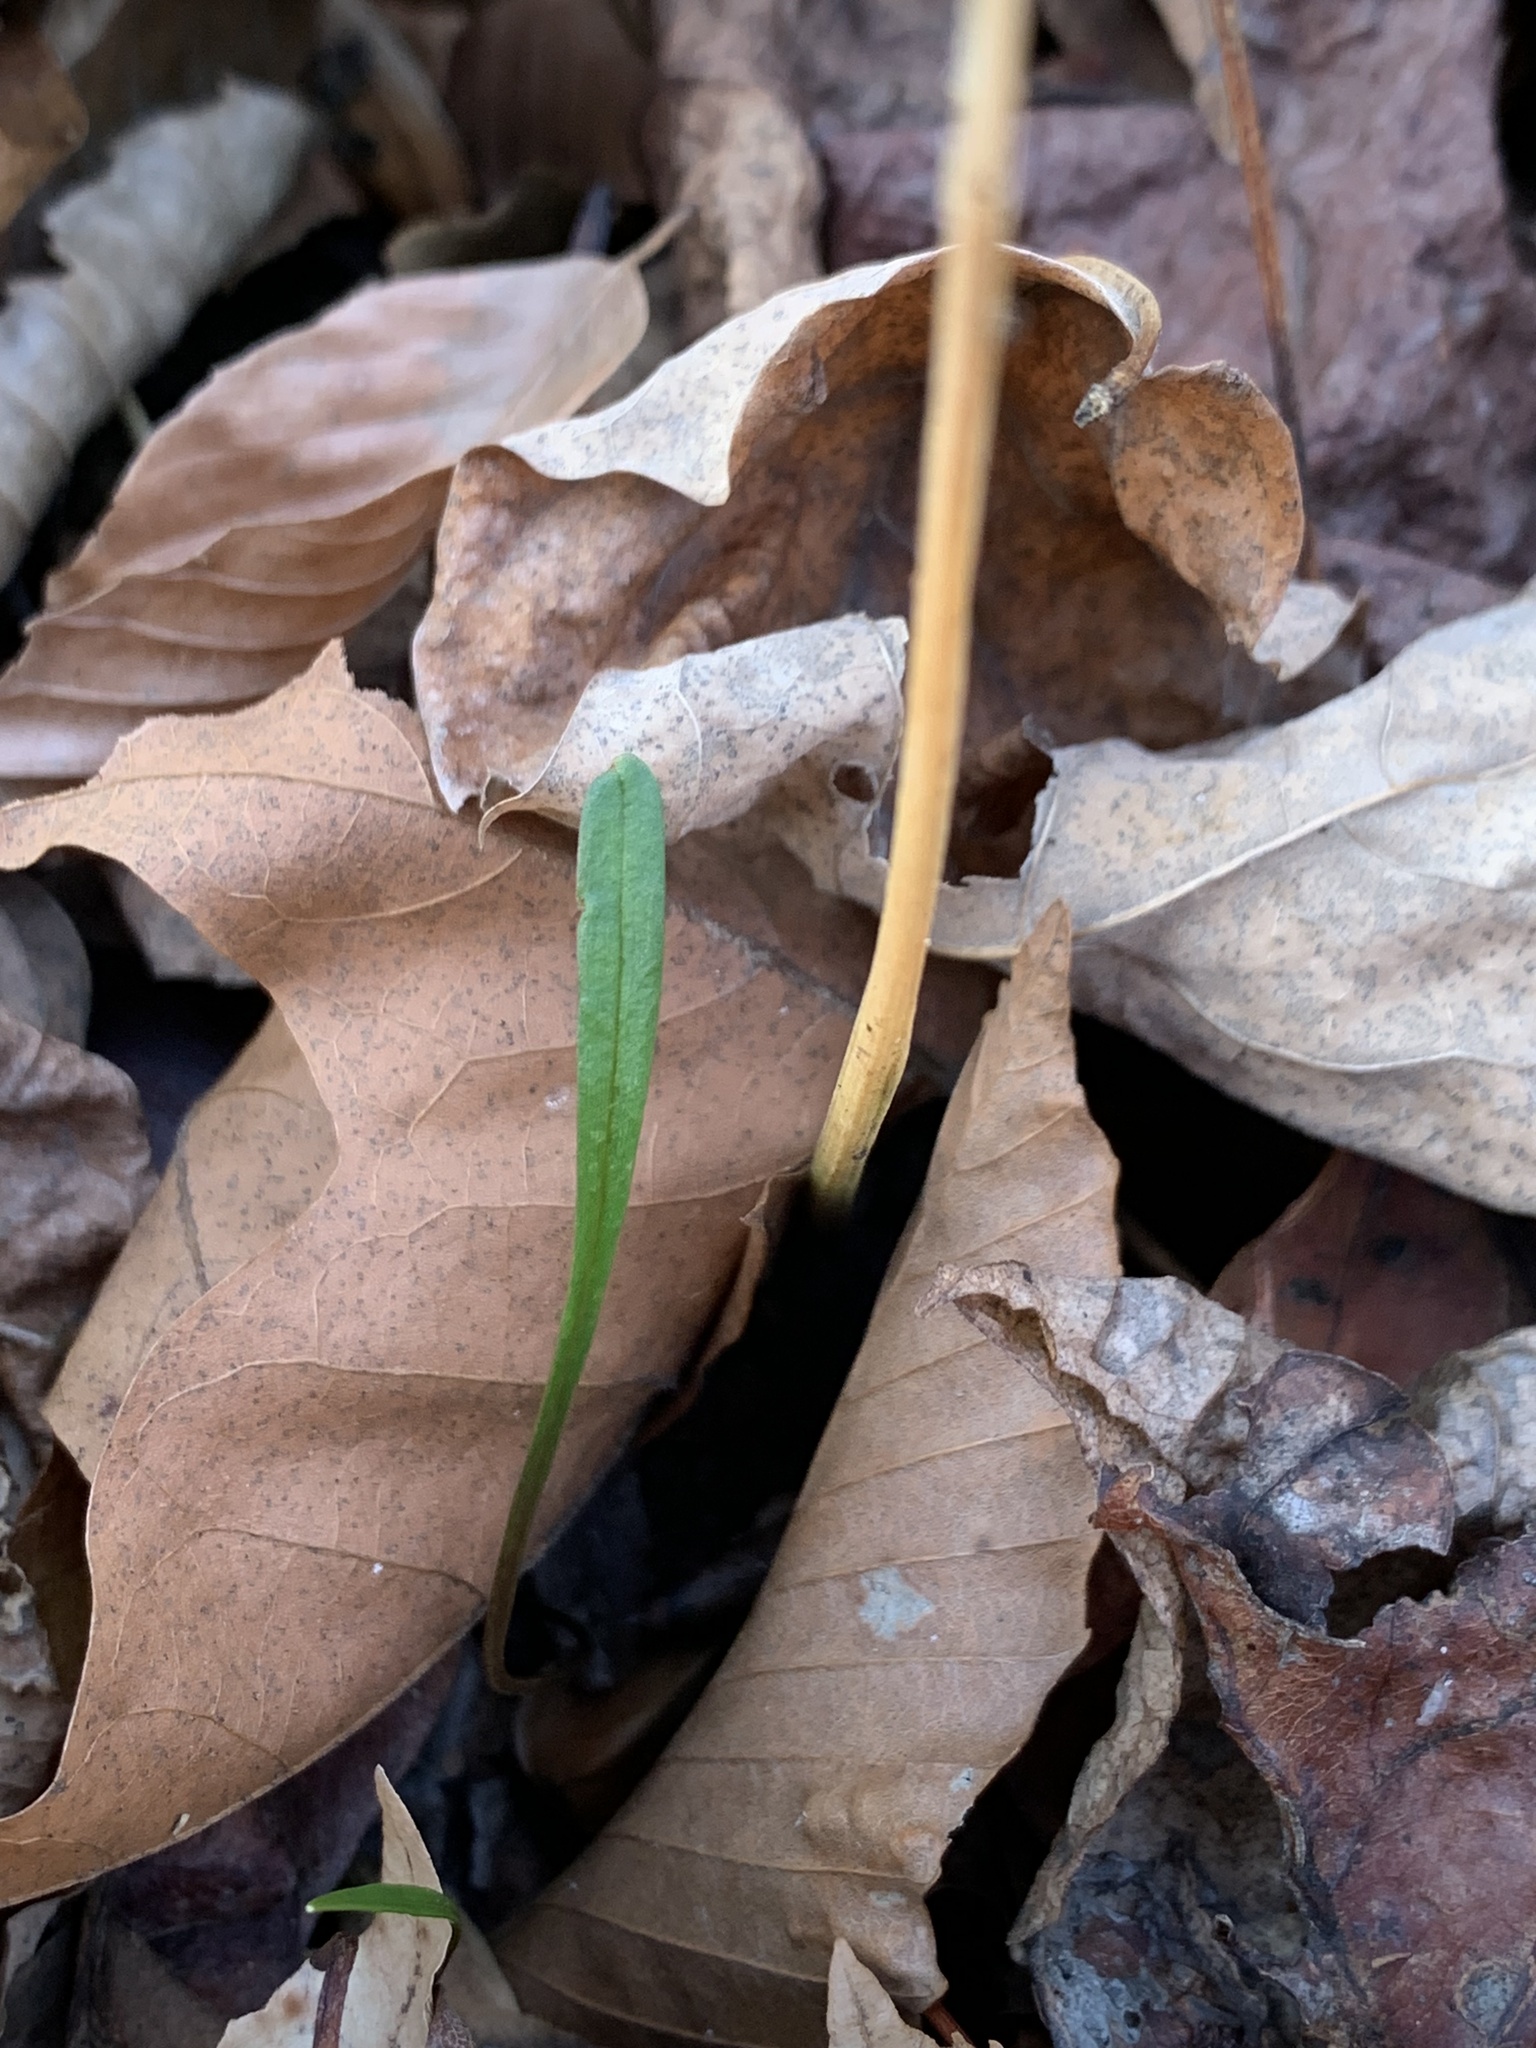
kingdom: Plantae
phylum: Tracheophyta
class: Magnoliopsida
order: Caryophyllales
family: Montiaceae
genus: Claytonia
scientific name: Claytonia virginica
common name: Virginia springbeauty
